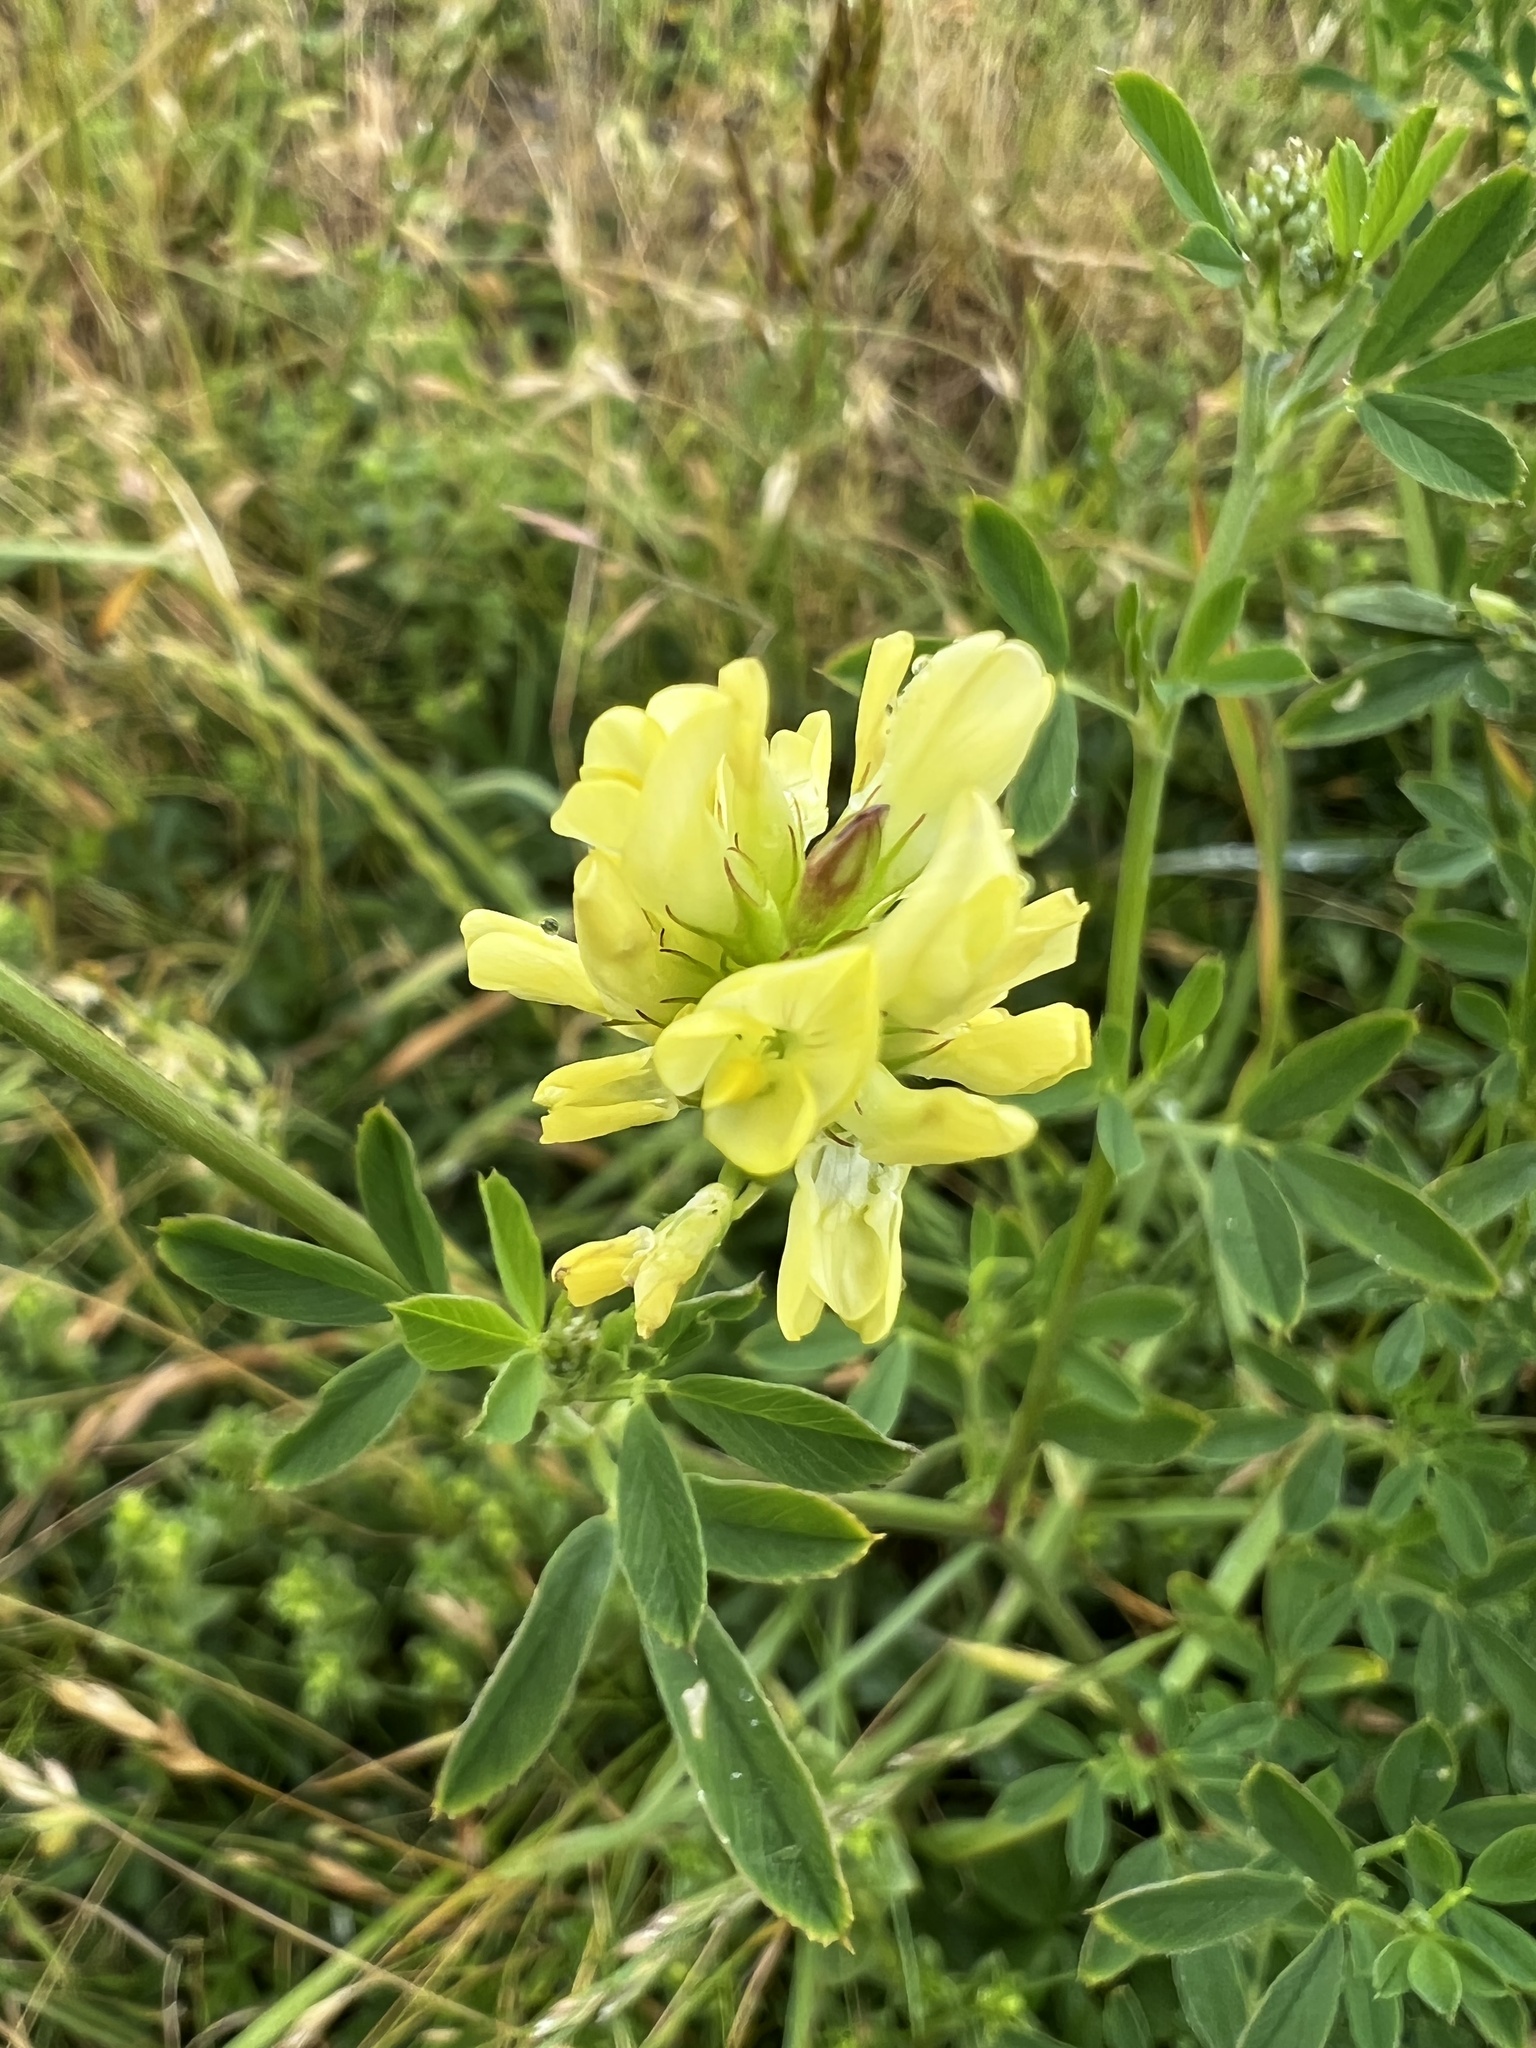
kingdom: Plantae
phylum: Tracheophyta
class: Magnoliopsida
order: Fabales
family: Fabaceae
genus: Anthyllis
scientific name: Anthyllis vulneraria
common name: Kidney vetch
